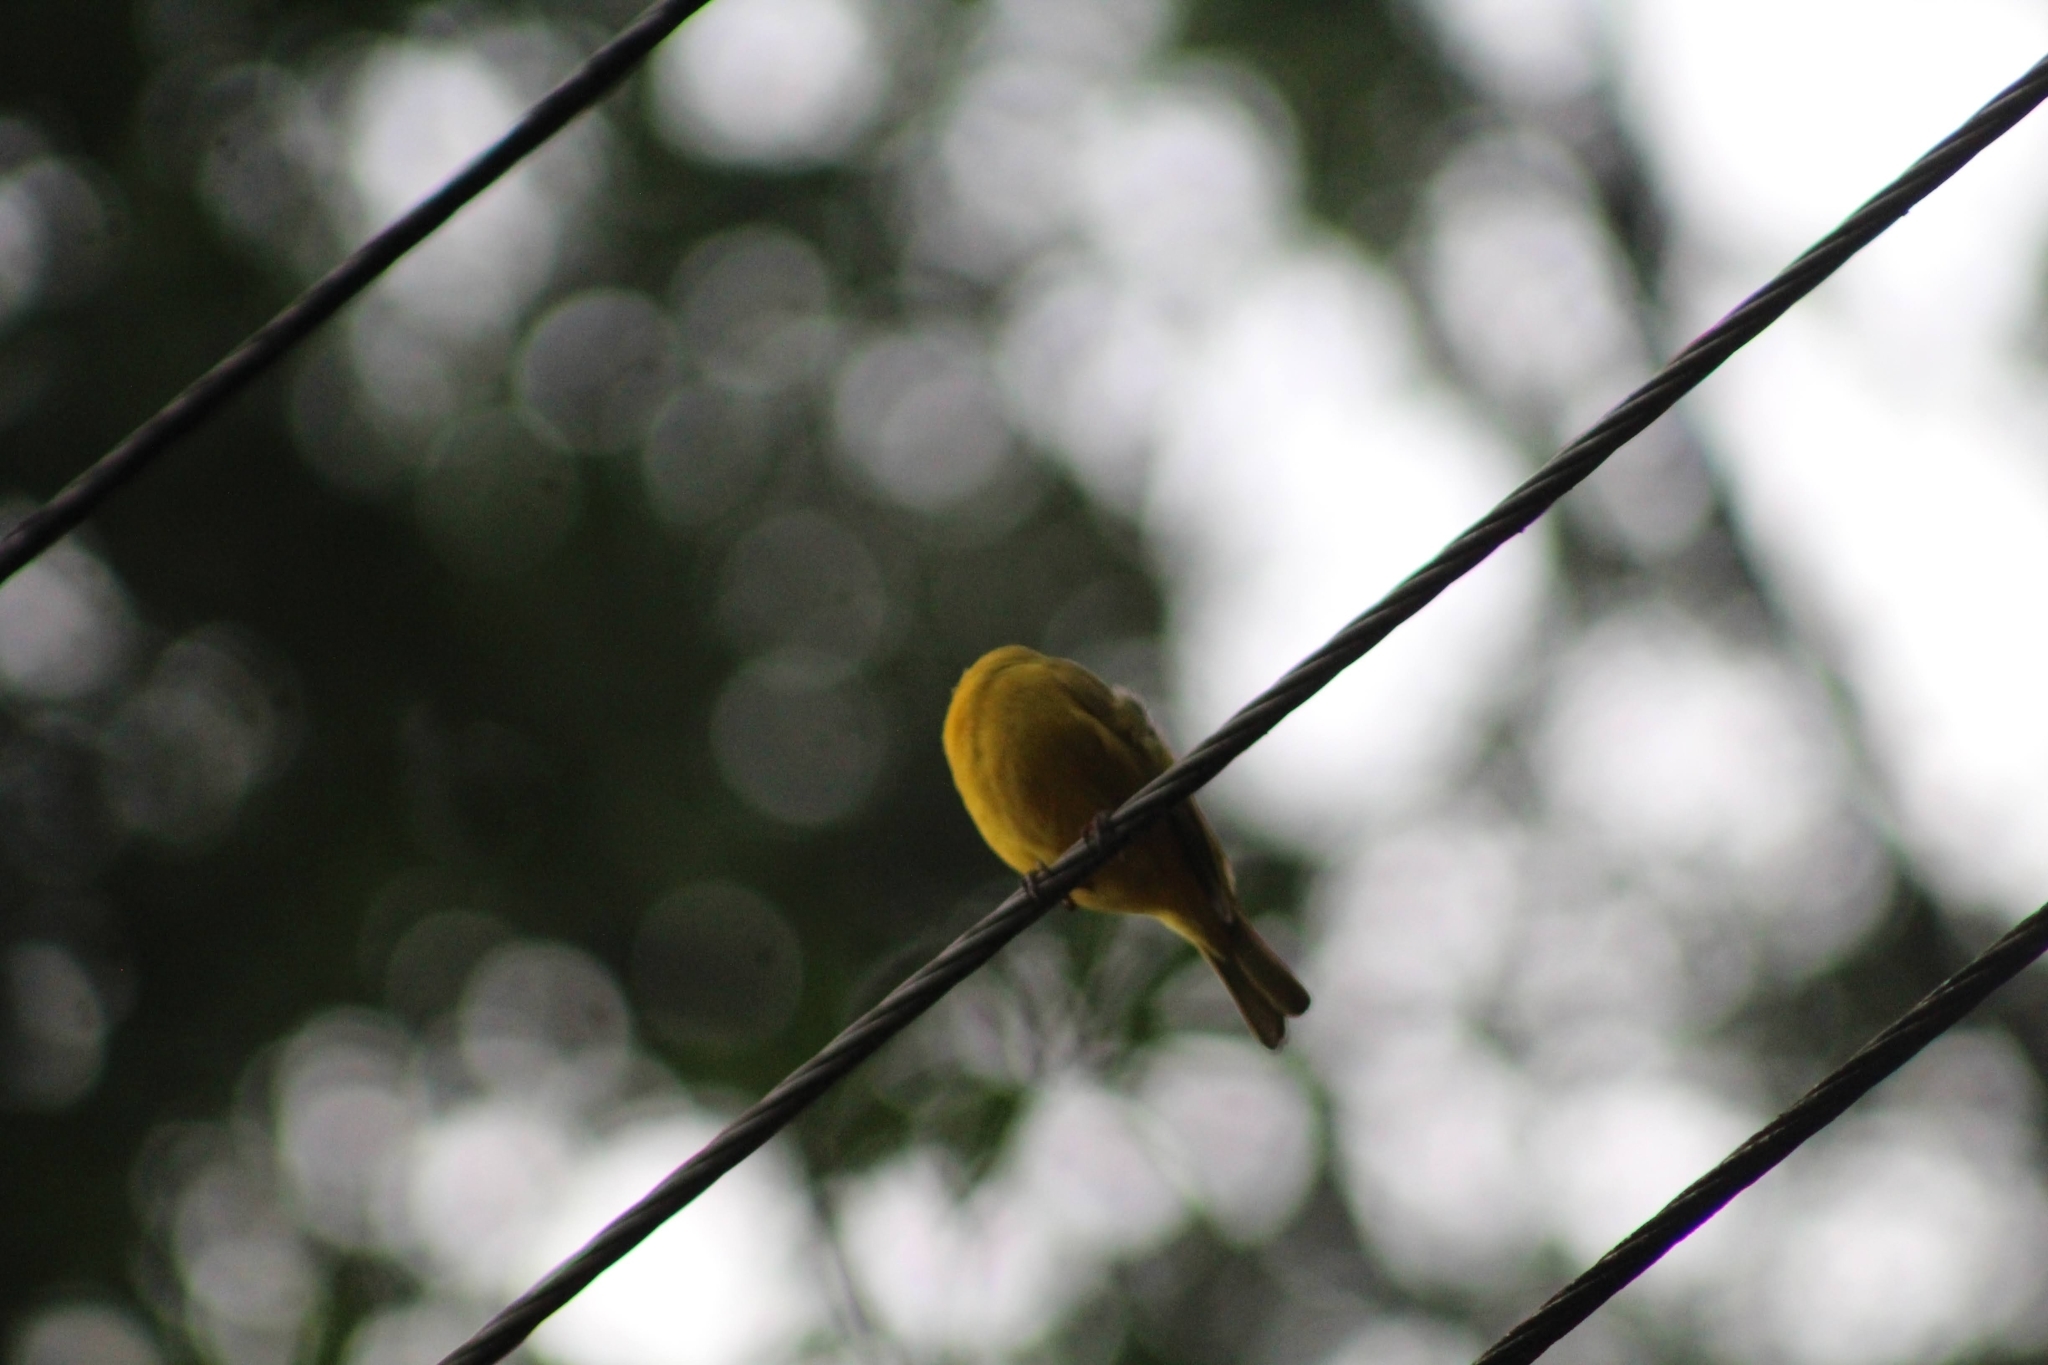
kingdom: Animalia
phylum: Chordata
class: Aves
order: Passeriformes
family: Thraupidae
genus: Sicalis
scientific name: Sicalis flaveola
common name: Saffron finch
